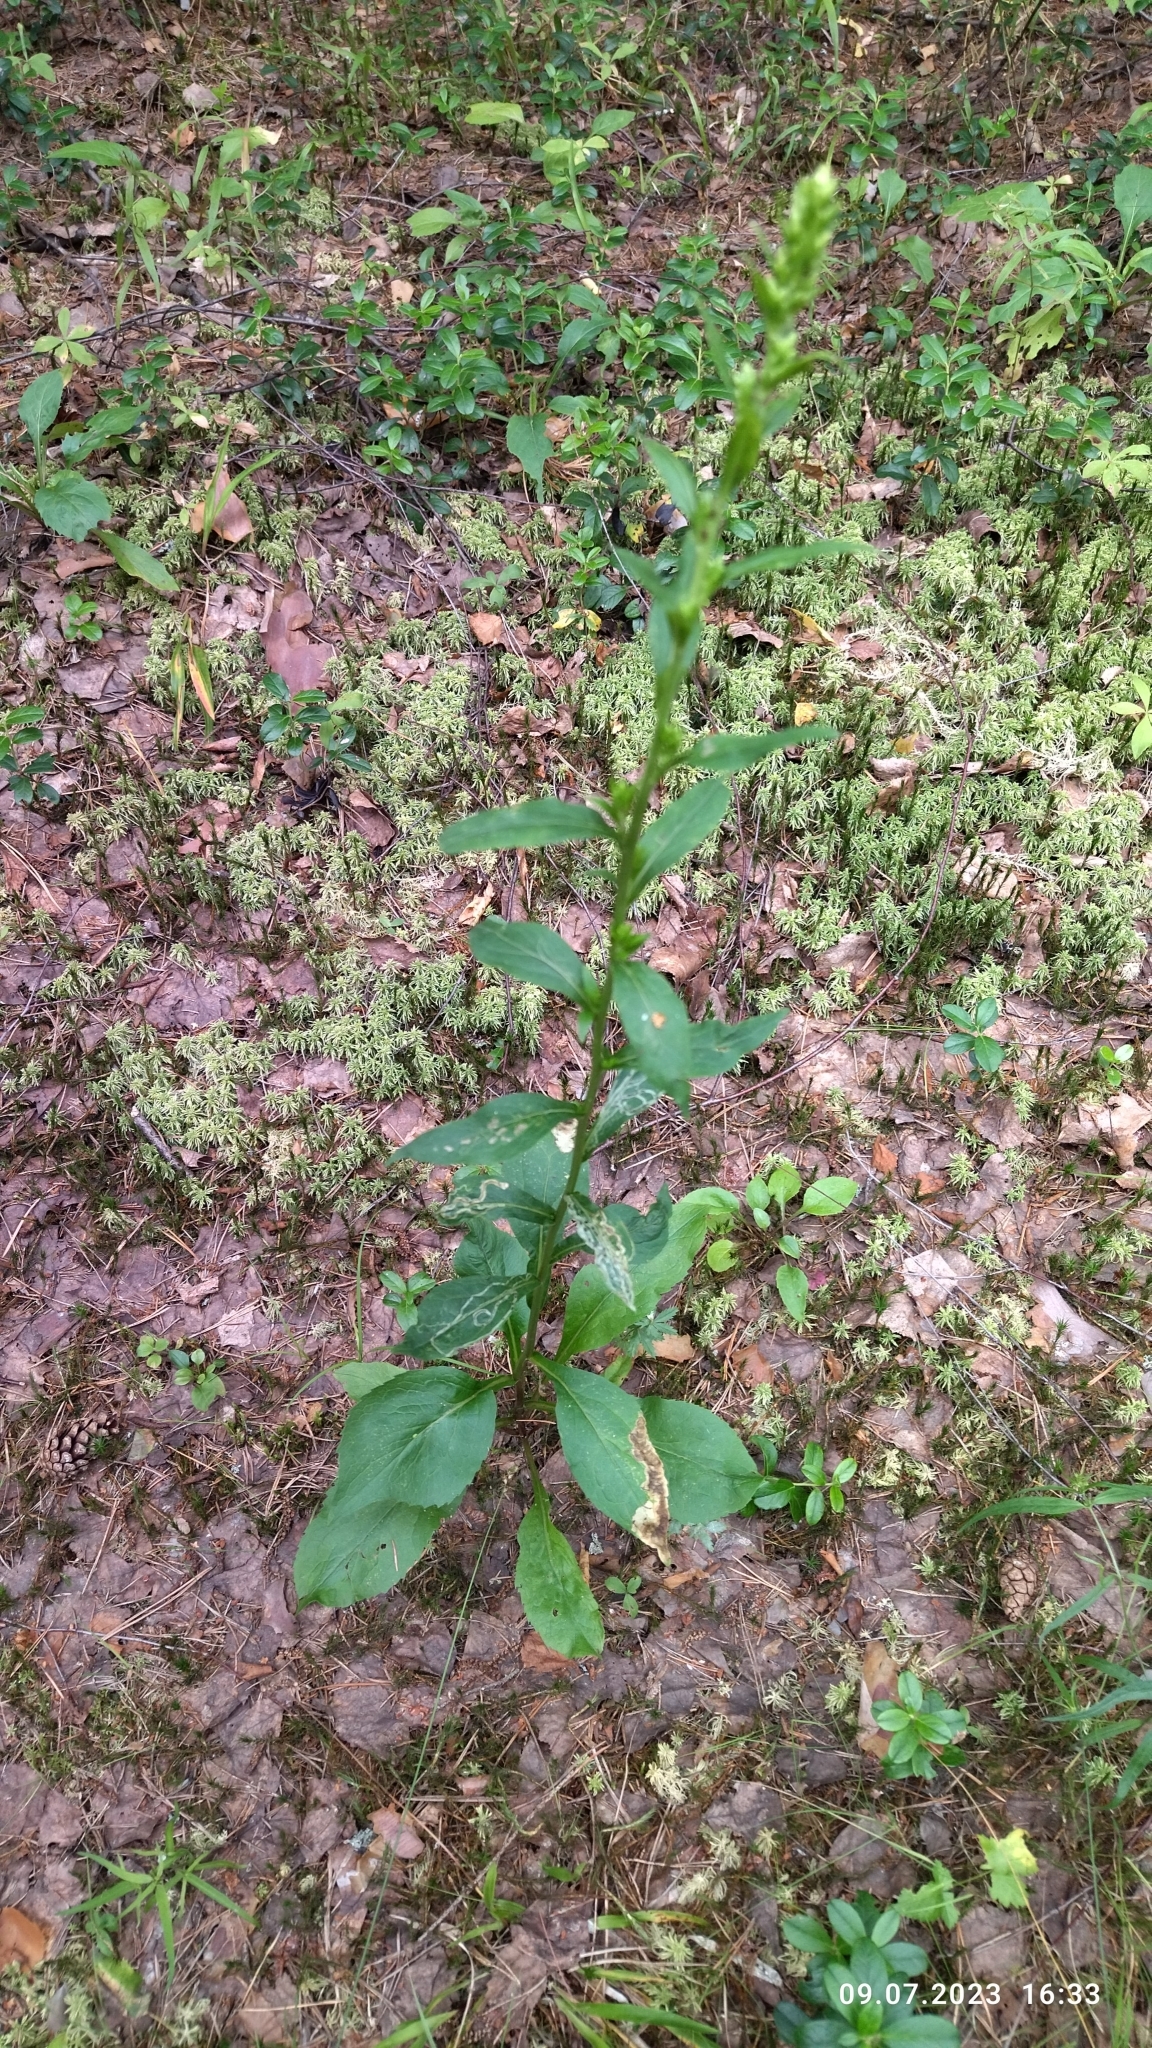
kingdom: Plantae
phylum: Tracheophyta
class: Magnoliopsida
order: Asterales
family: Asteraceae
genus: Solidago
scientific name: Solidago virgaurea
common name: Goldenrod
